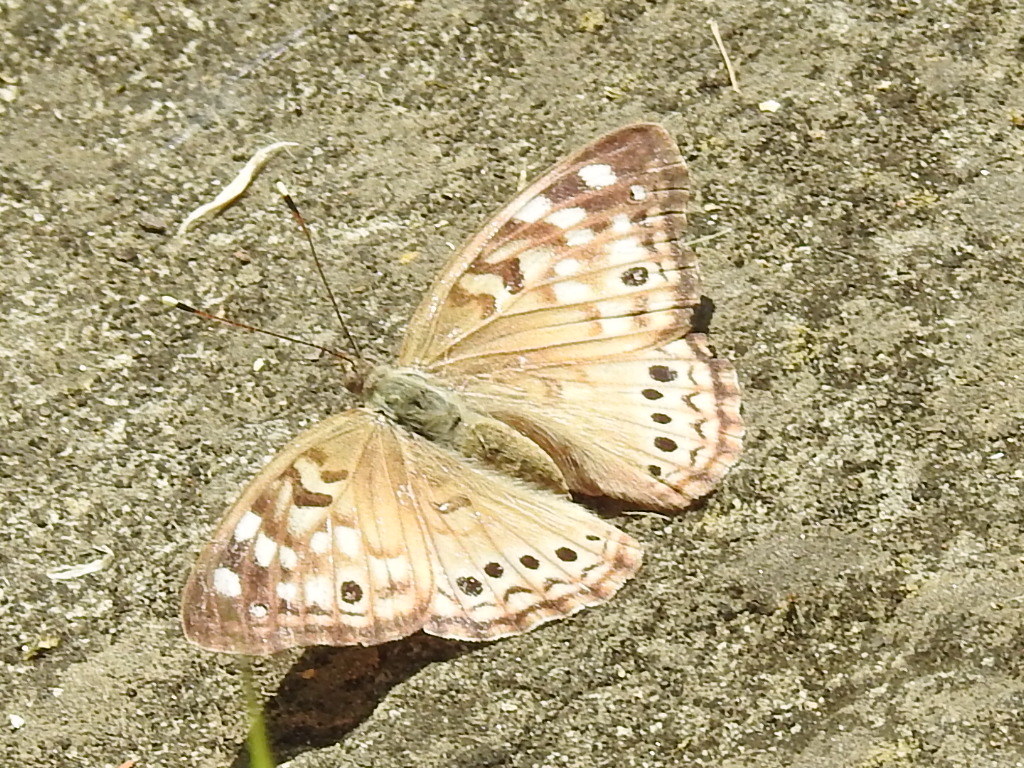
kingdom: Animalia
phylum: Arthropoda
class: Insecta
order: Lepidoptera
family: Nymphalidae
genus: Asterocampa
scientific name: Asterocampa celtis
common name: Hackberry emperor
